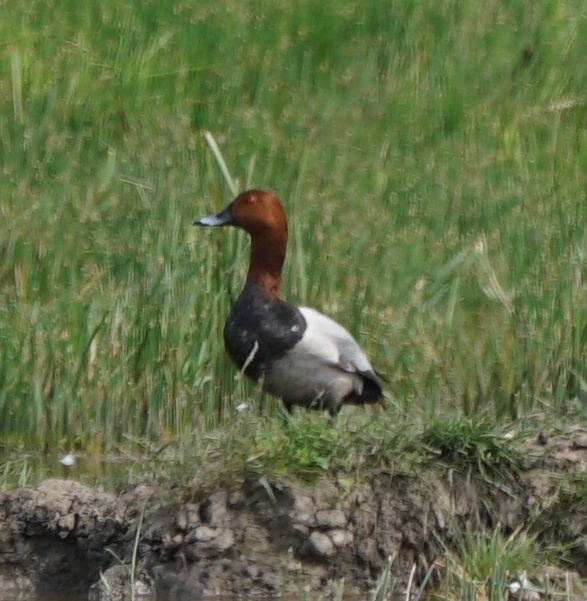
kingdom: Animalia
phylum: Chordata
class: Aves
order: Anseriformes
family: Anatidae
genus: Aythya
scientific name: Aythya ferina
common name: Common pochard
